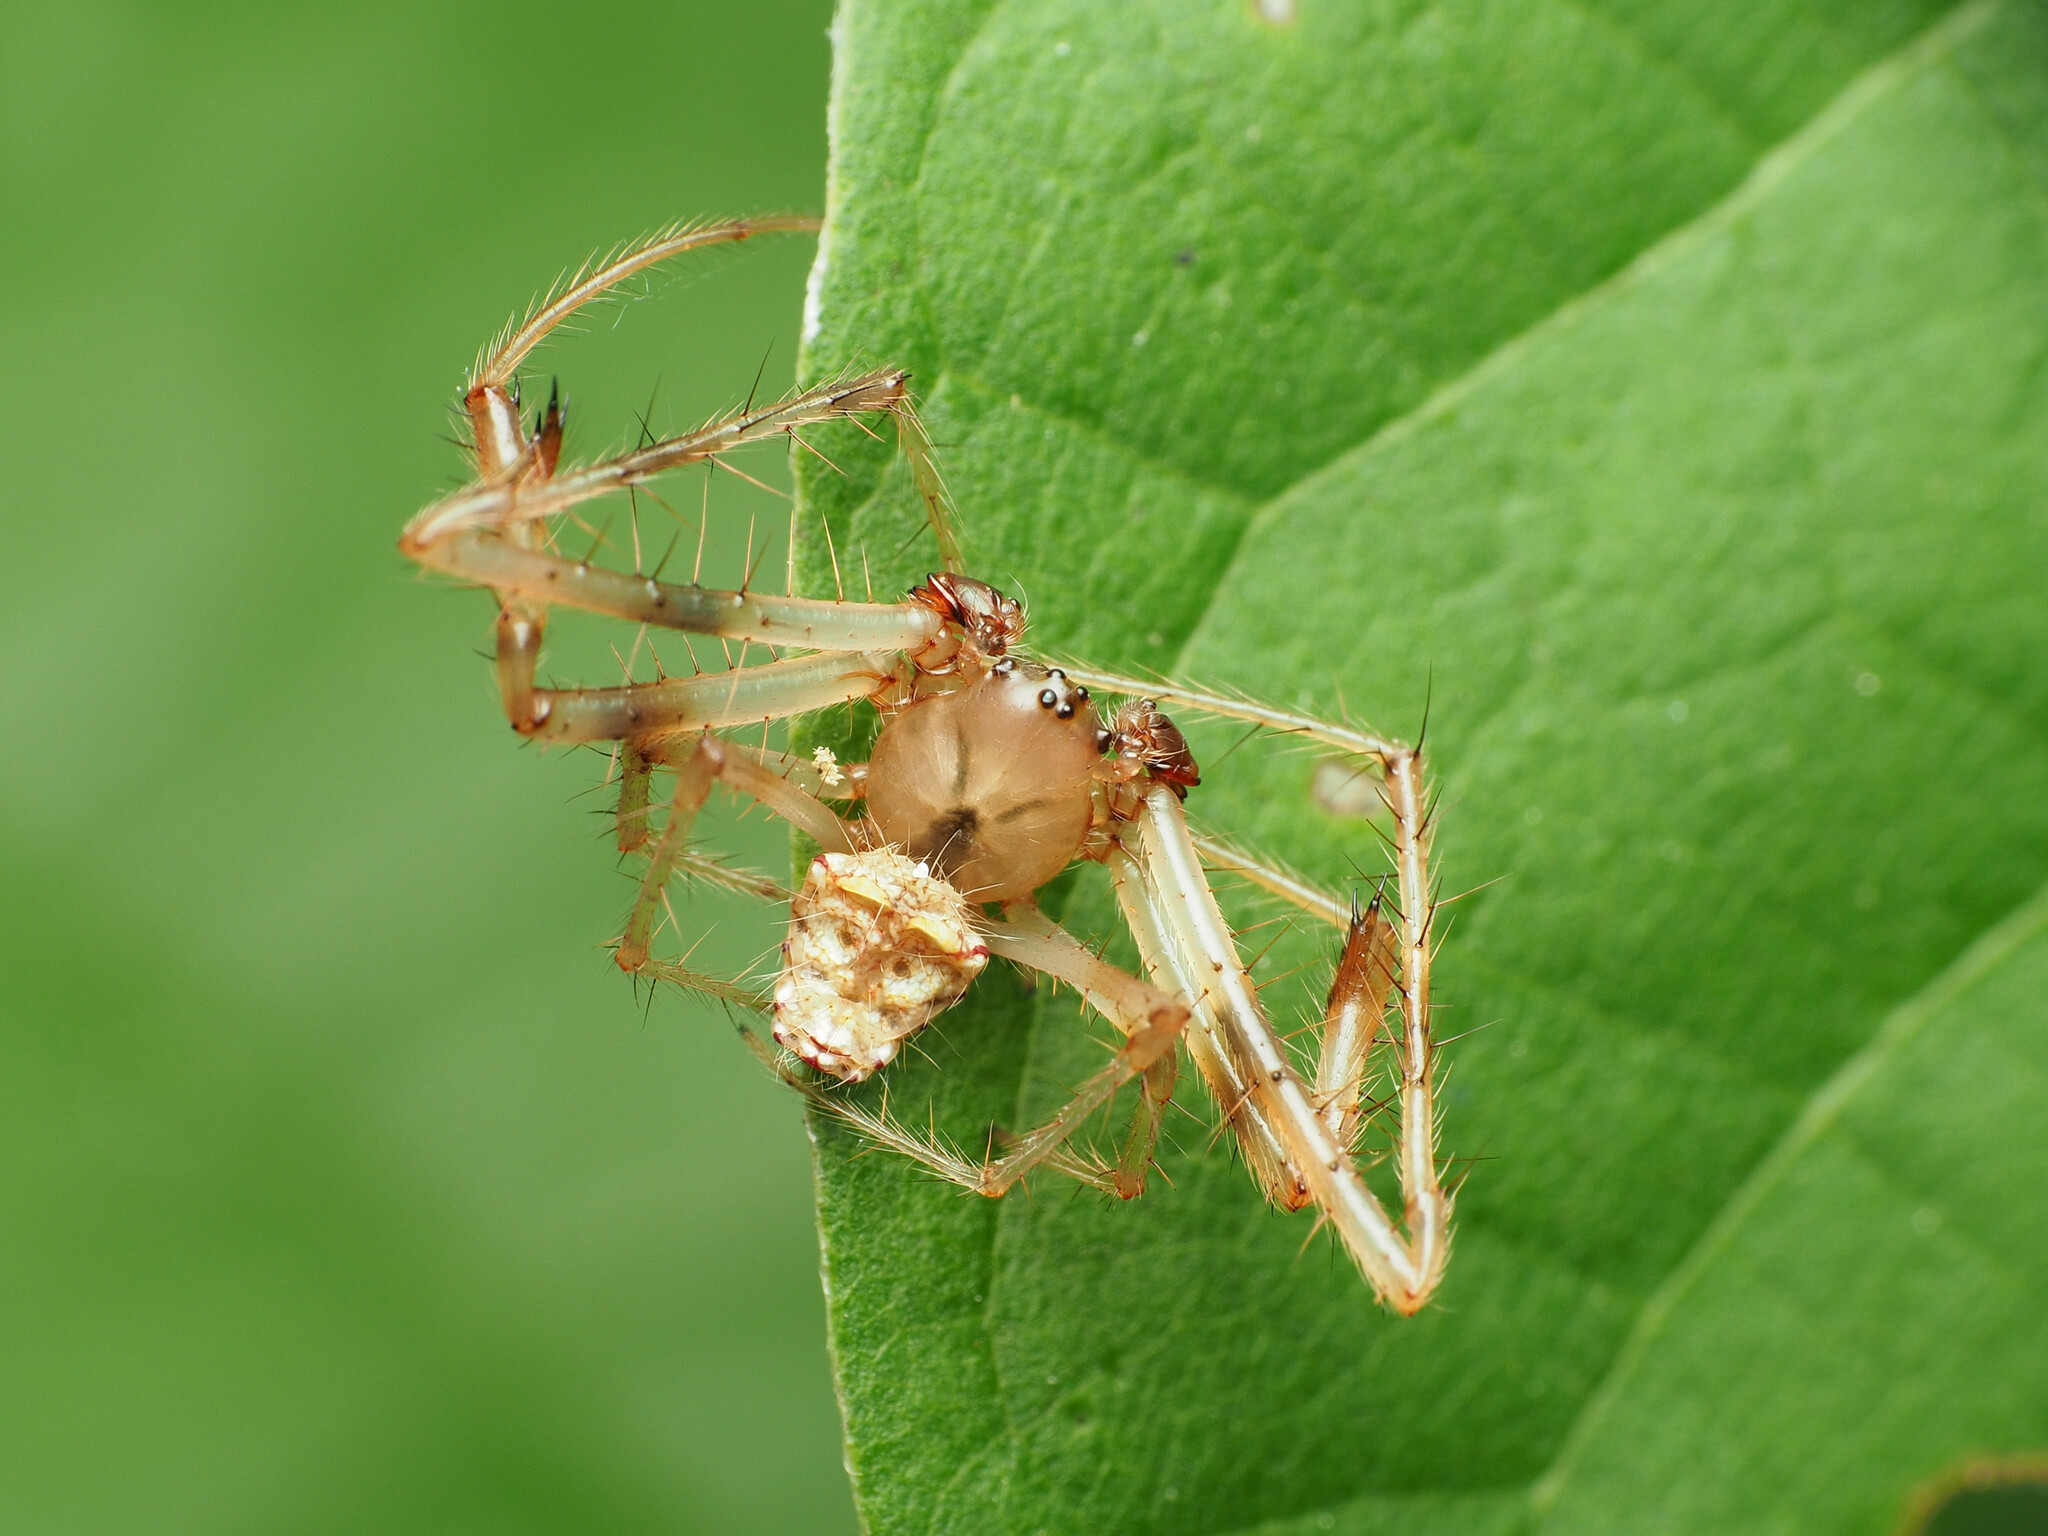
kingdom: Animalia
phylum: Arthropoda
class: Arachnida
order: Araneae
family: Araneidae
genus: Verrucosa
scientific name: Verrucosa arenata
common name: Orb weavers
